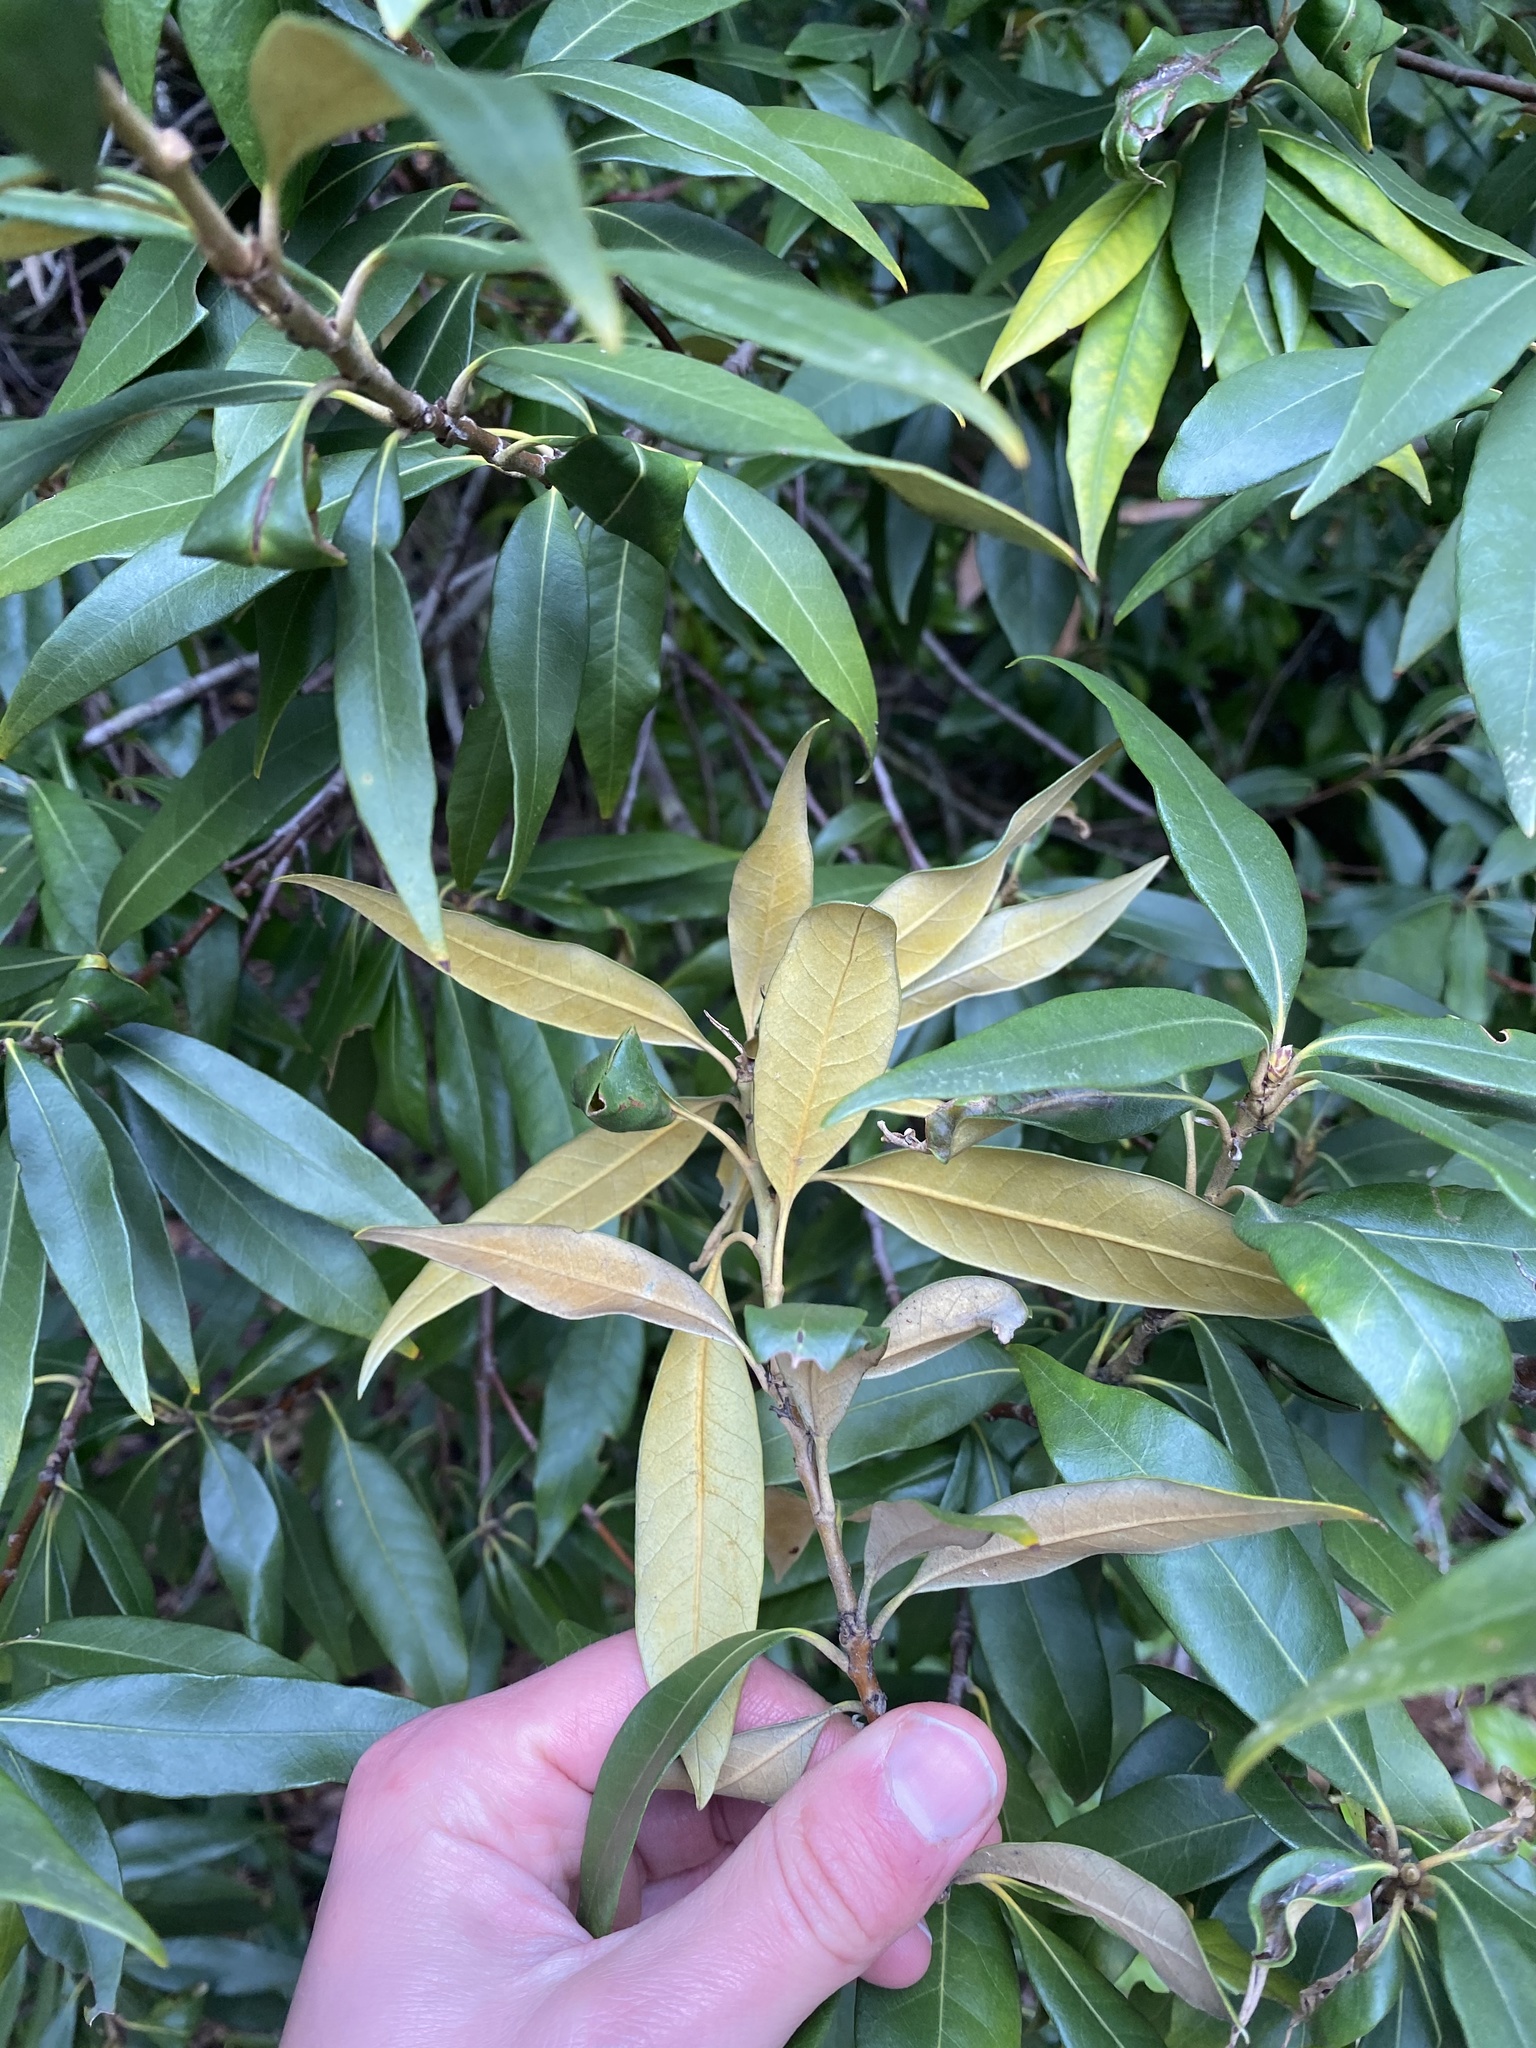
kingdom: Plantae
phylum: Tracheophyta
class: Magnoliopsida
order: Fagales
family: Fagaceae
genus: Chrysolepis
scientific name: Chrysolepis chrysophylla
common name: Giant chinquapin
